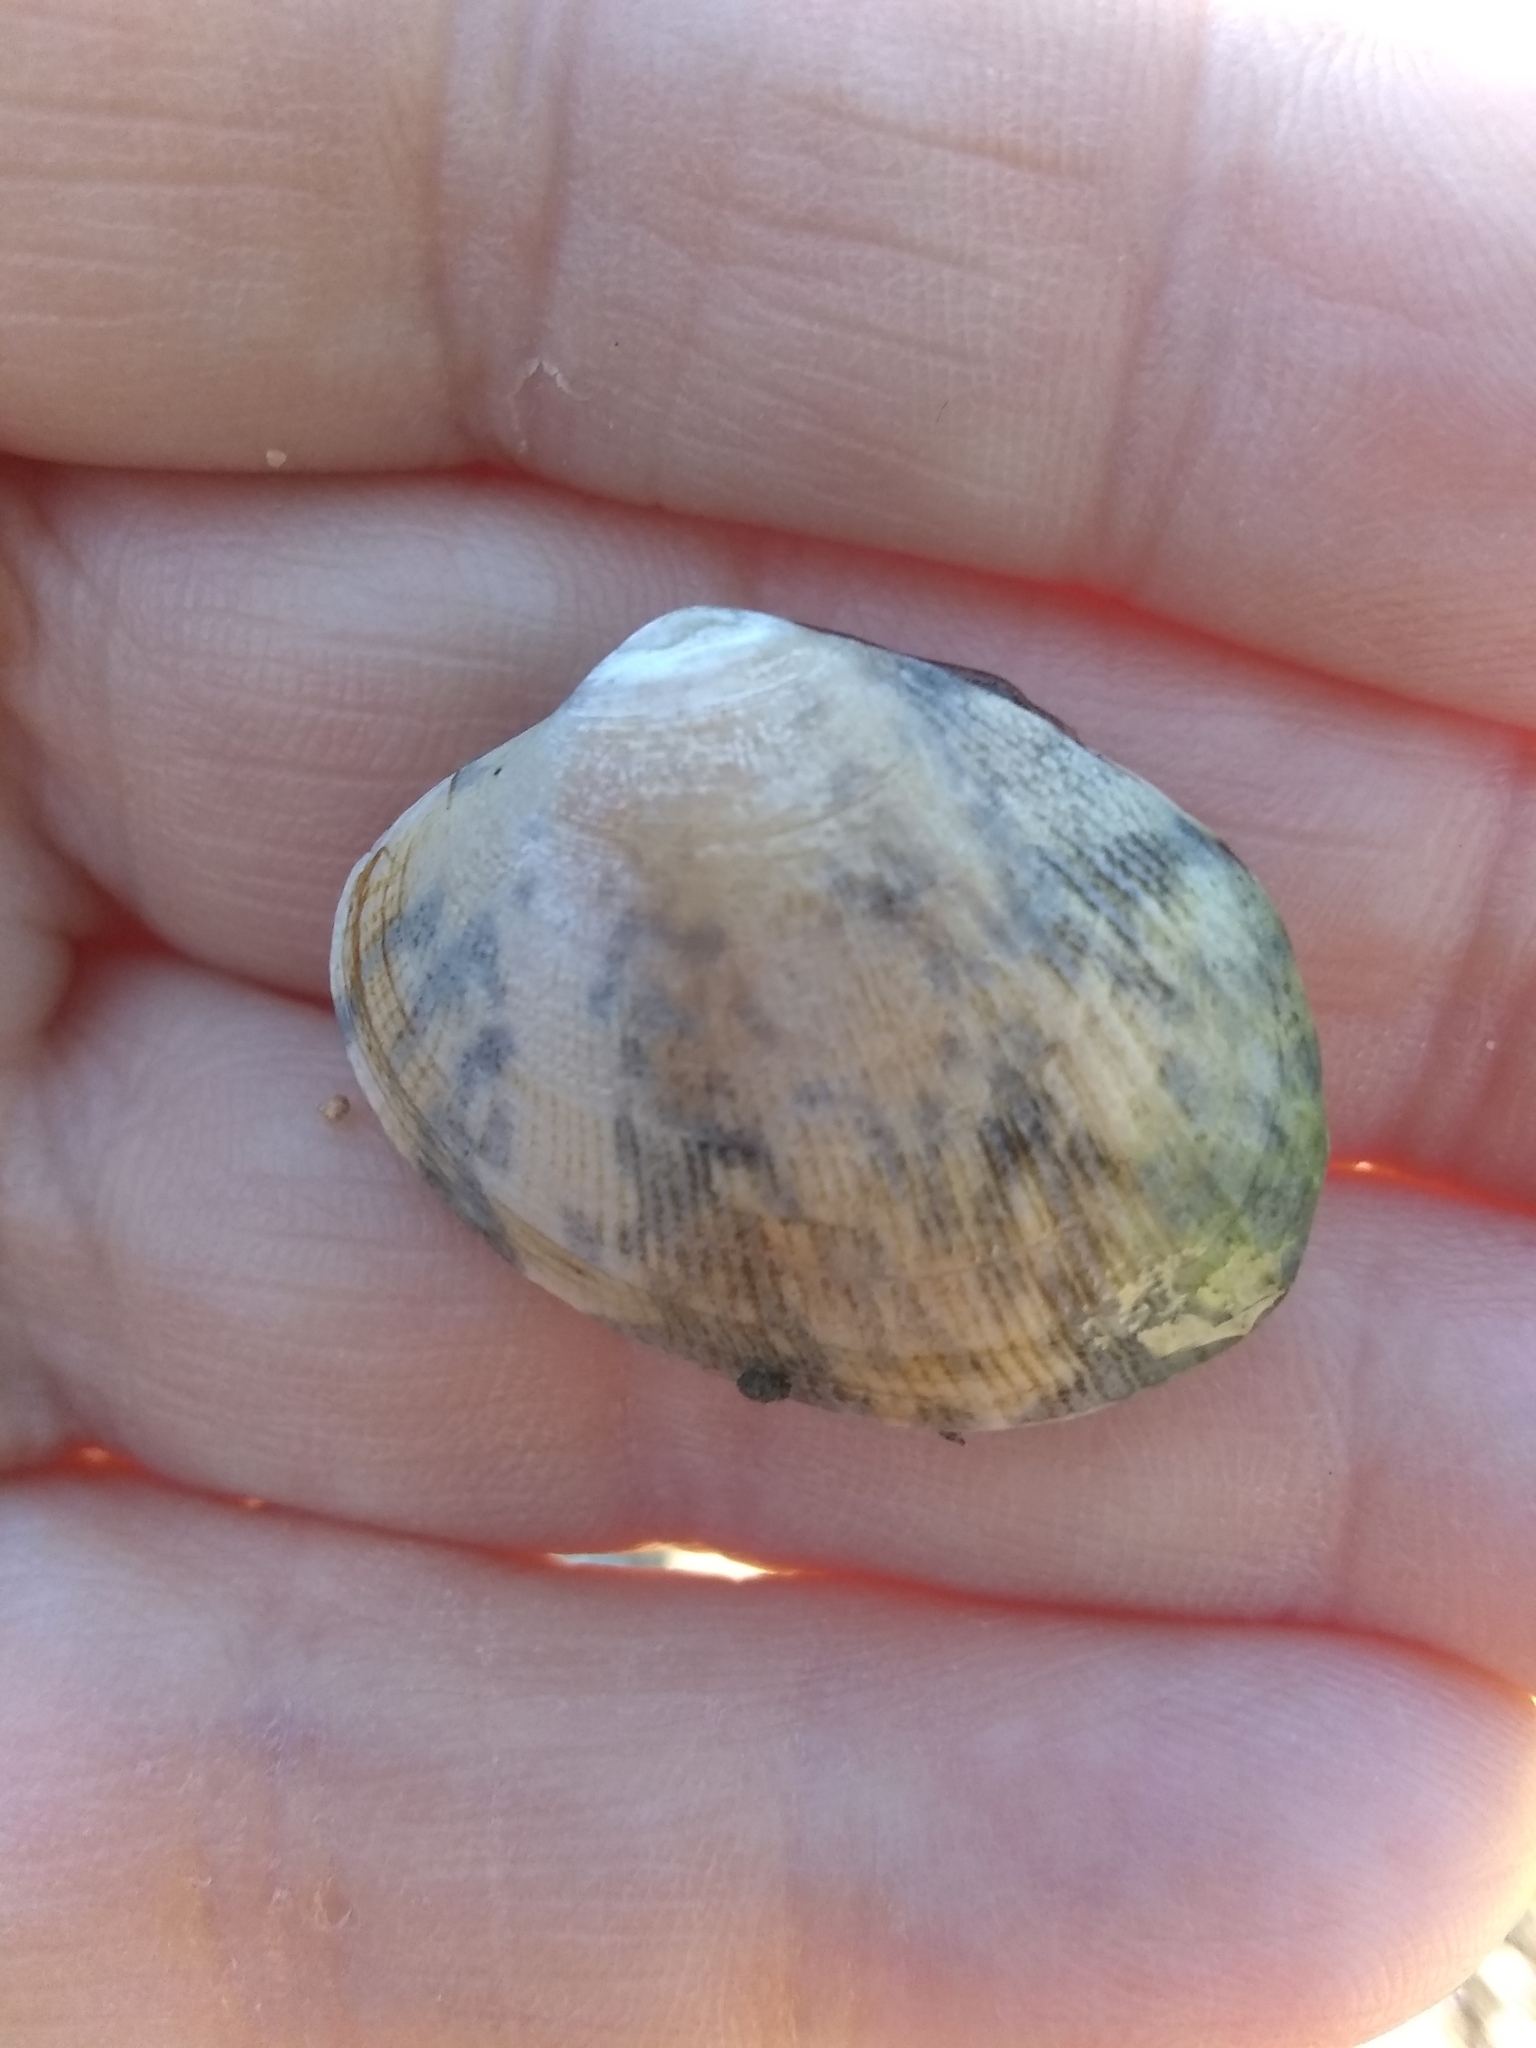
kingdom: Animalia
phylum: Mollusca
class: Bivalvia
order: Venerida
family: Veneridae
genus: Ruditapes
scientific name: Ruditapes philippinarum
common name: Manila clam
